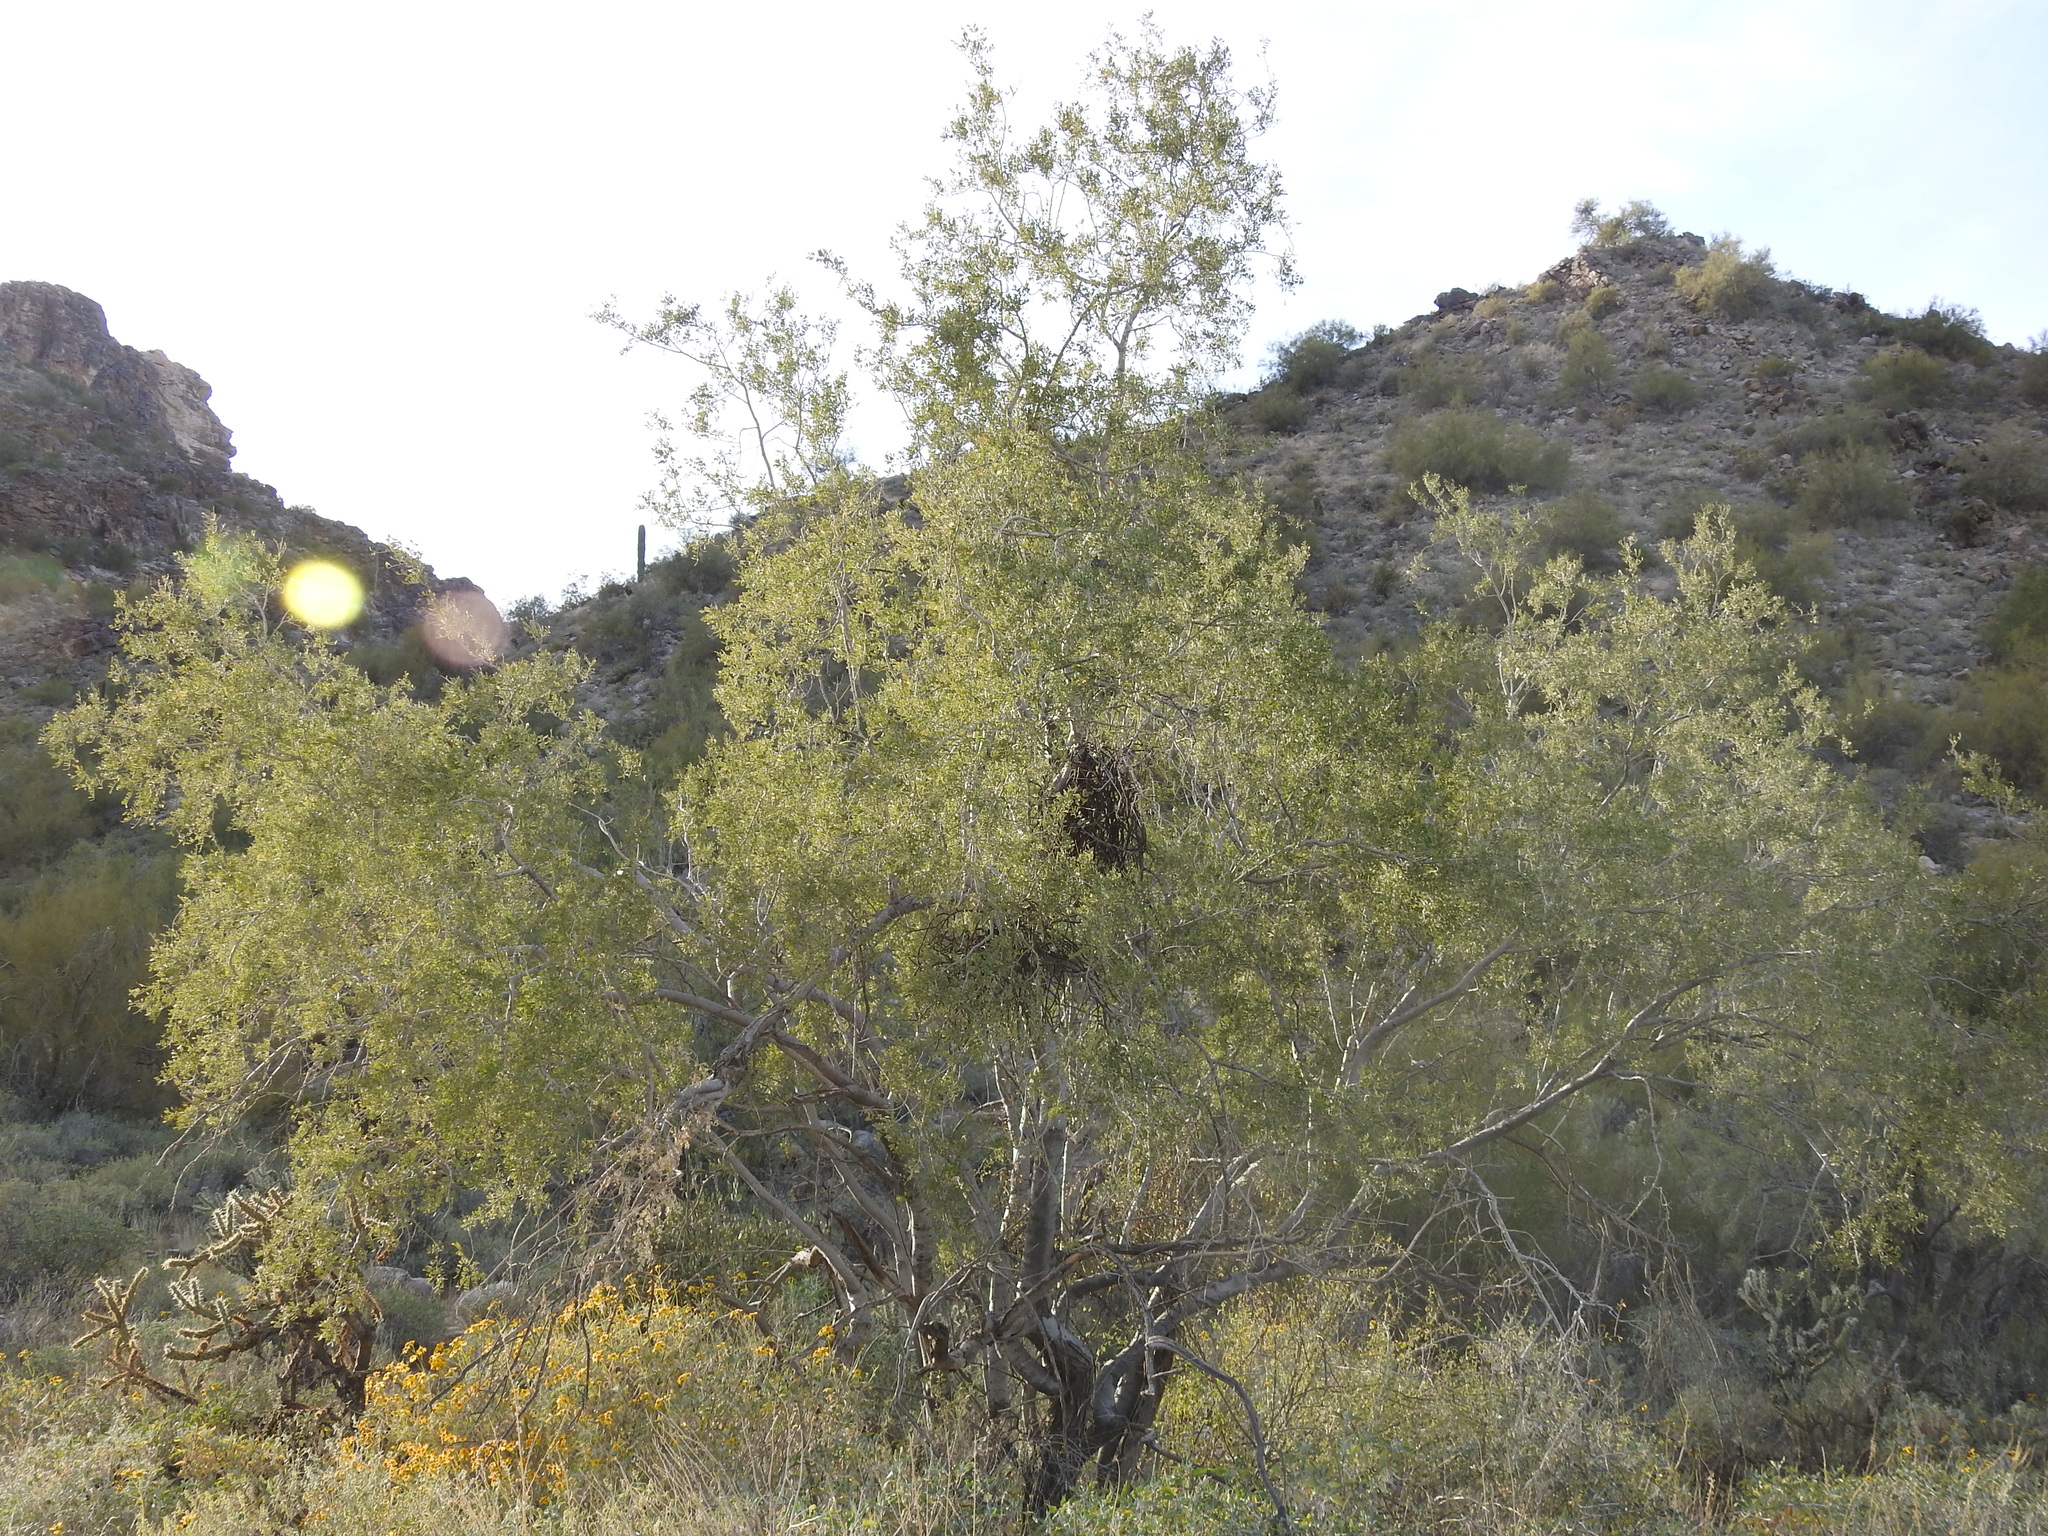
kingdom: Plantae
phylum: Tracheophyta
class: Magnoliopsida
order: Fabales
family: Fabaceae
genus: Olneya
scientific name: Olneya tesota
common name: Desert ironwood
